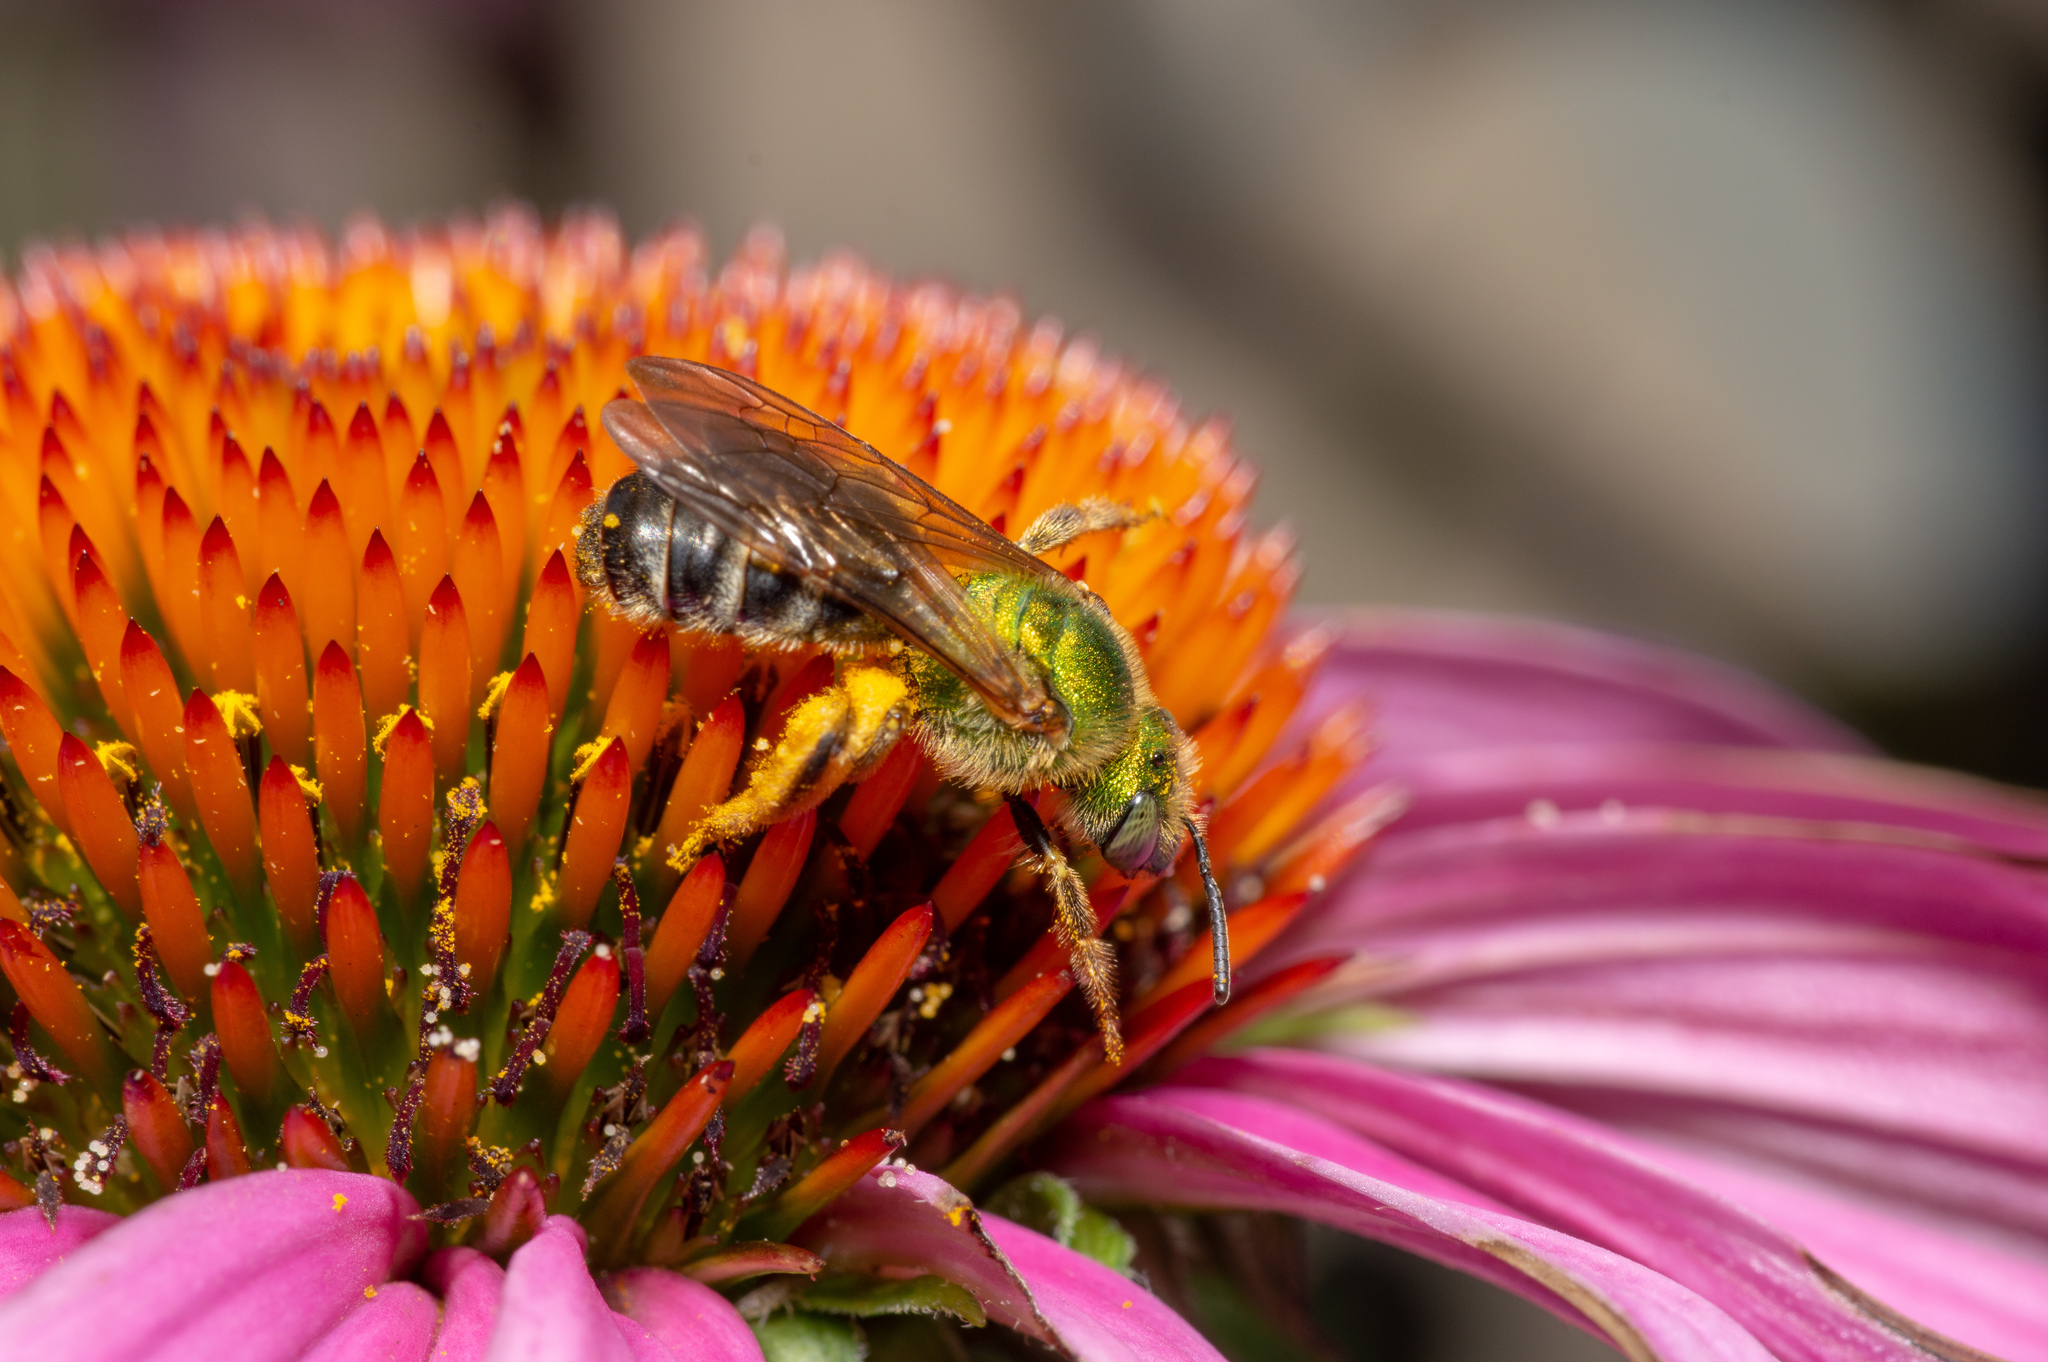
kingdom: Animalia
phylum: Arthropoda
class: Insecta
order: Hymenoptera
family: Halictidae
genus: Agapostemon
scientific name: Agapostemon virescens
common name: Bicolored striped sweat bee
